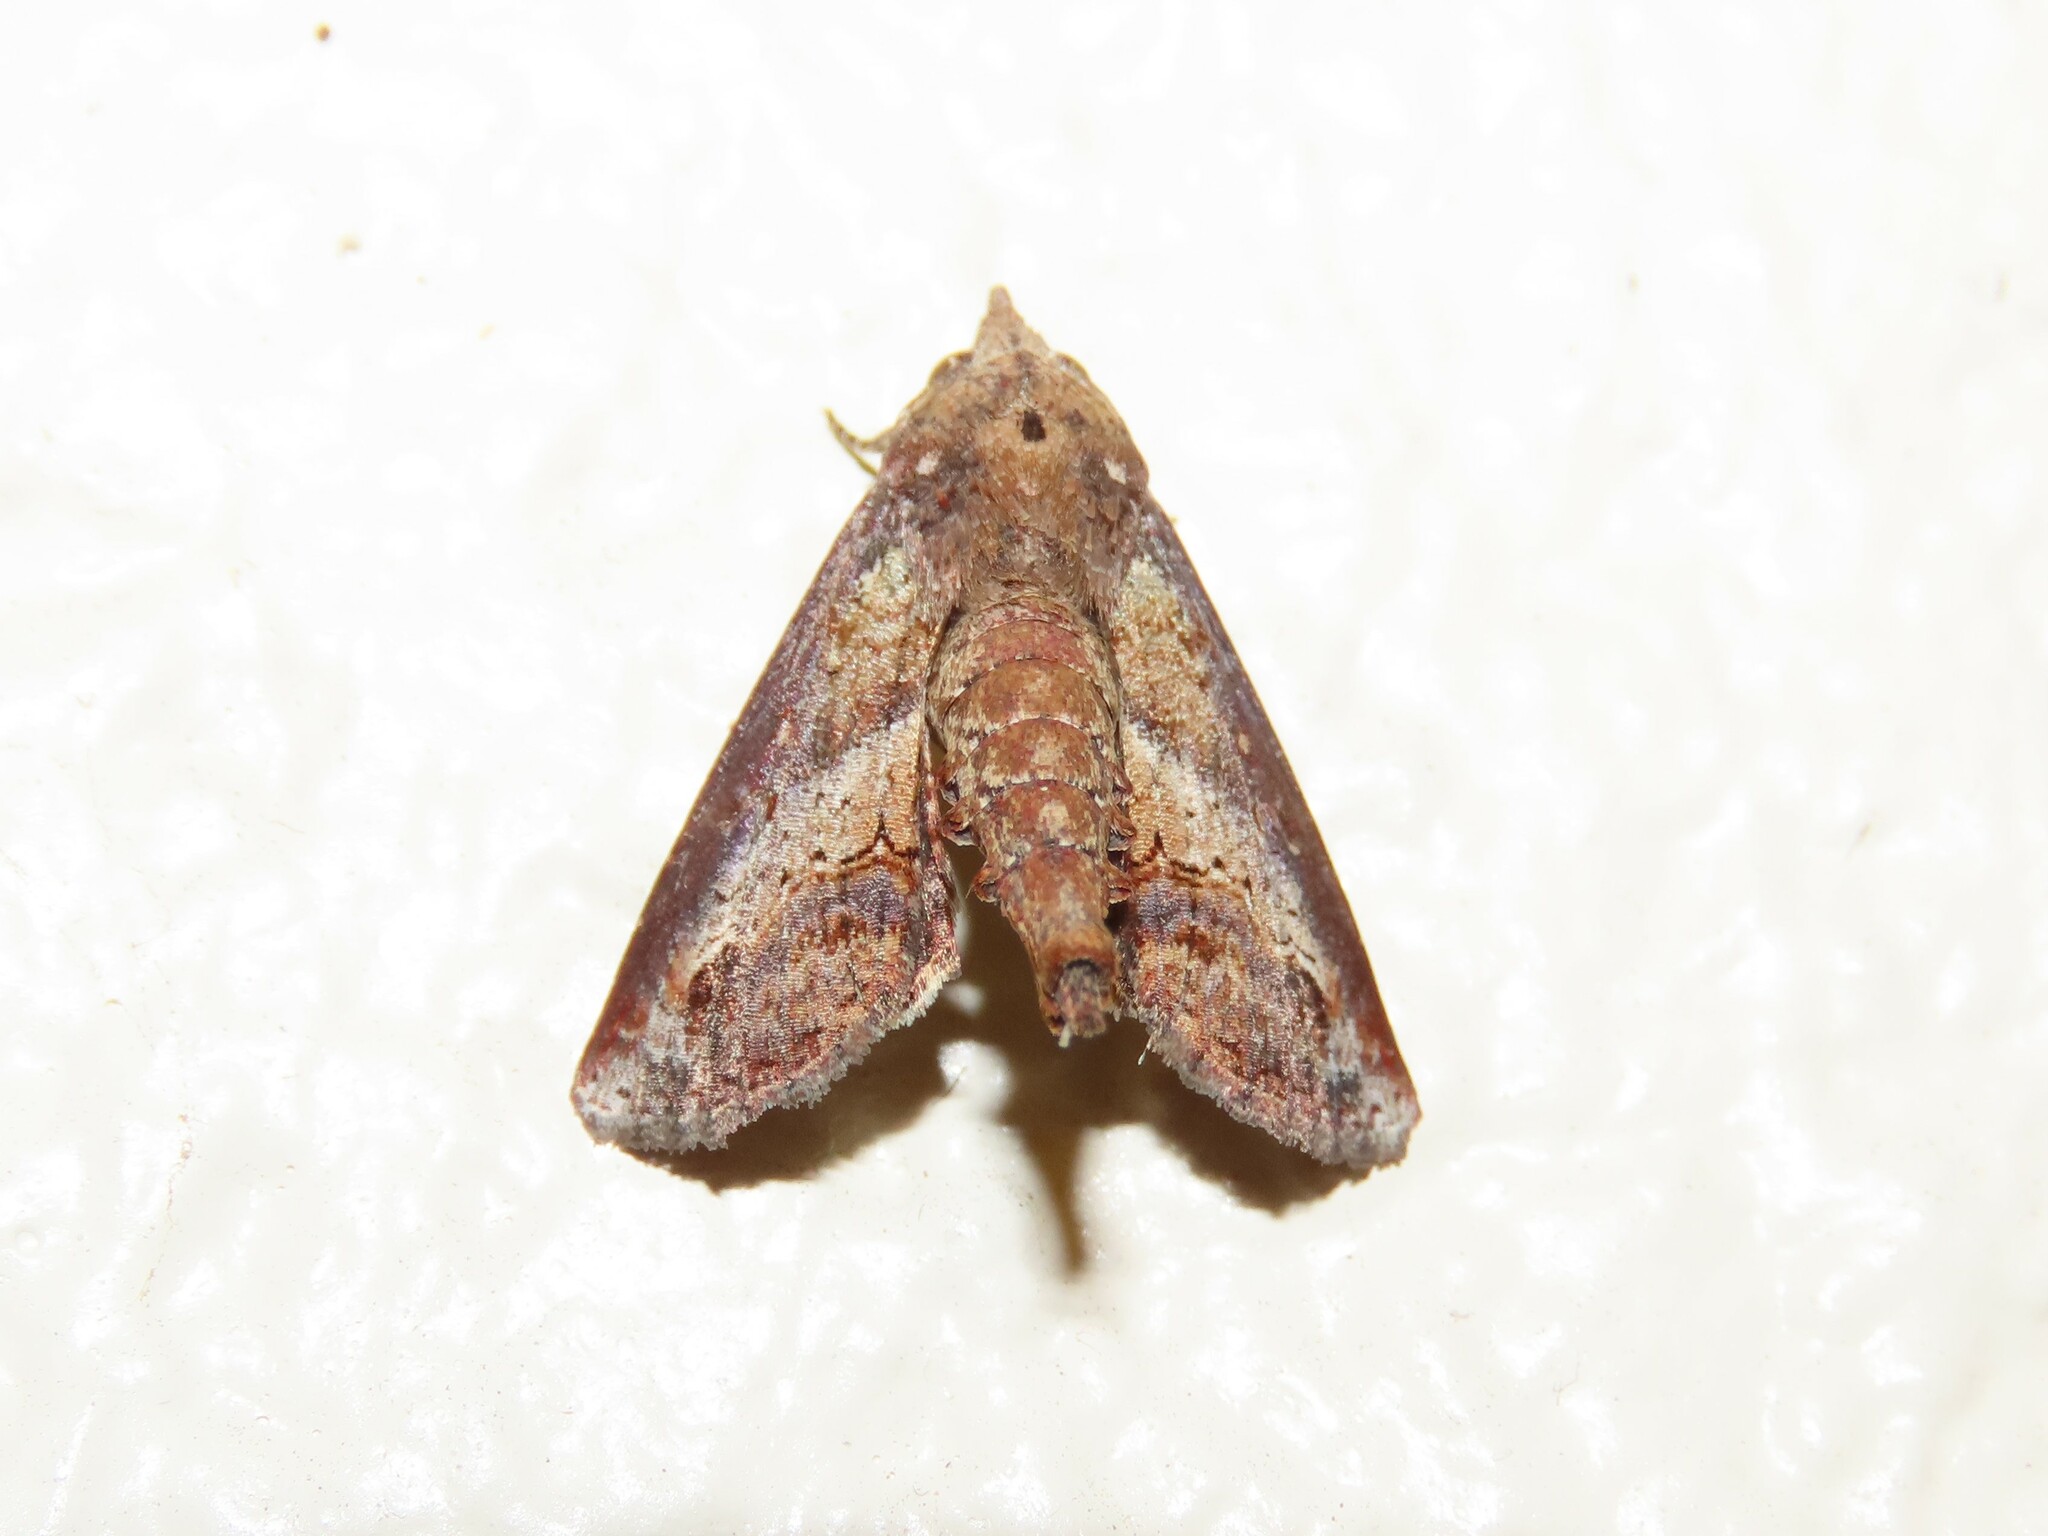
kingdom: Animalia
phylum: Arthropoda
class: Insecta
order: Lepidoptera
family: Euteliidae
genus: Paectes
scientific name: Paectes abrostoloides
